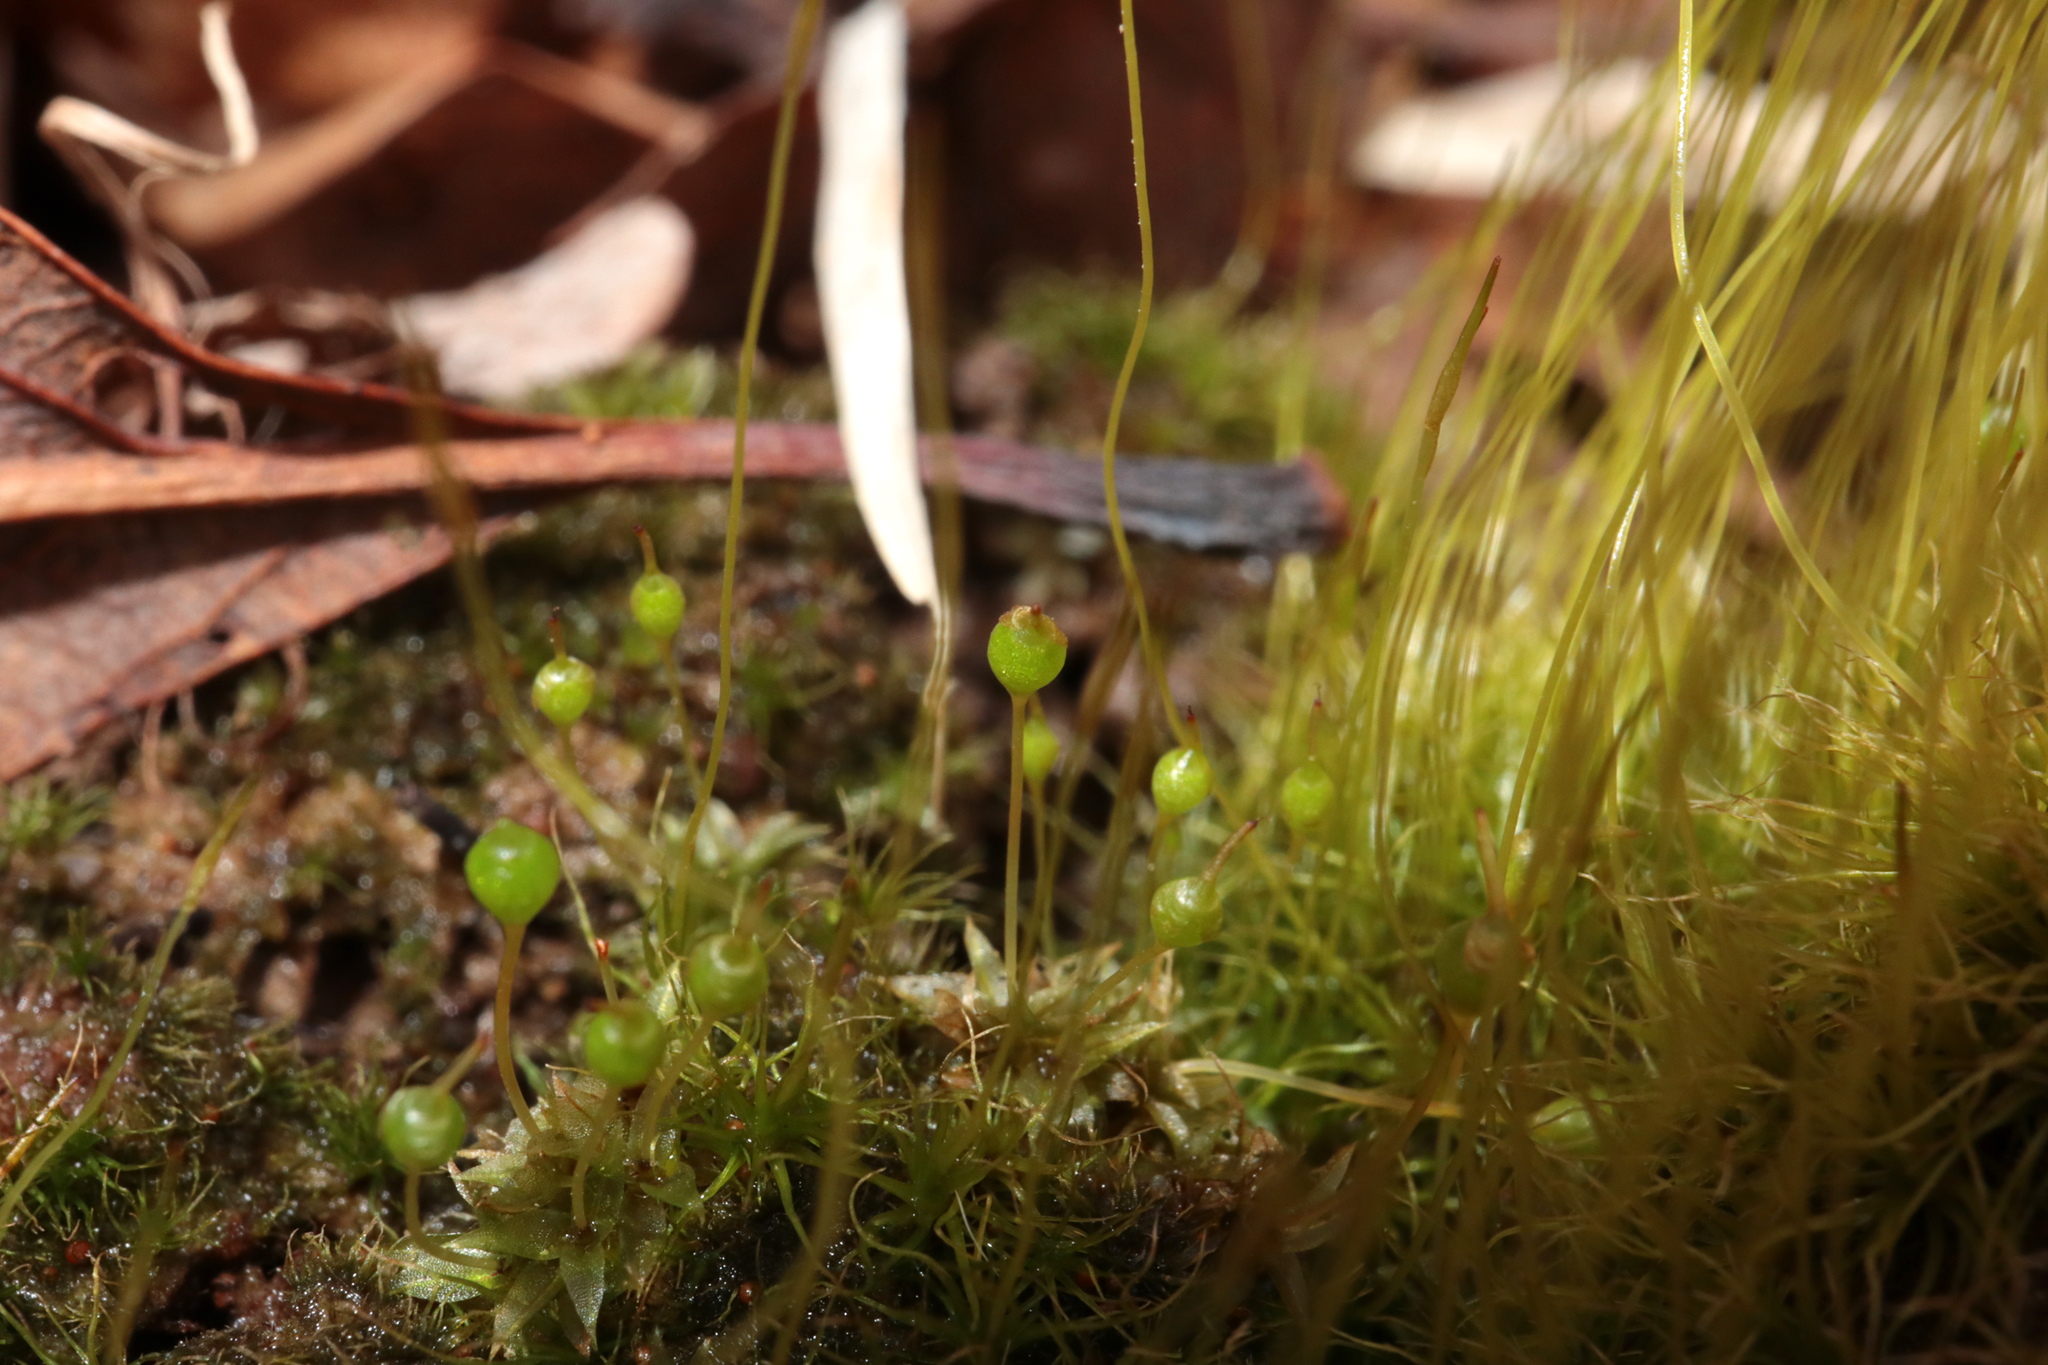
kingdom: Plantae
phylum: Bryophyta
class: Bryopsida
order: Funariales
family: Funariaceae
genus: Physcomitrium
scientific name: Physcomitrium pyriforme
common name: Common bladder-moss
